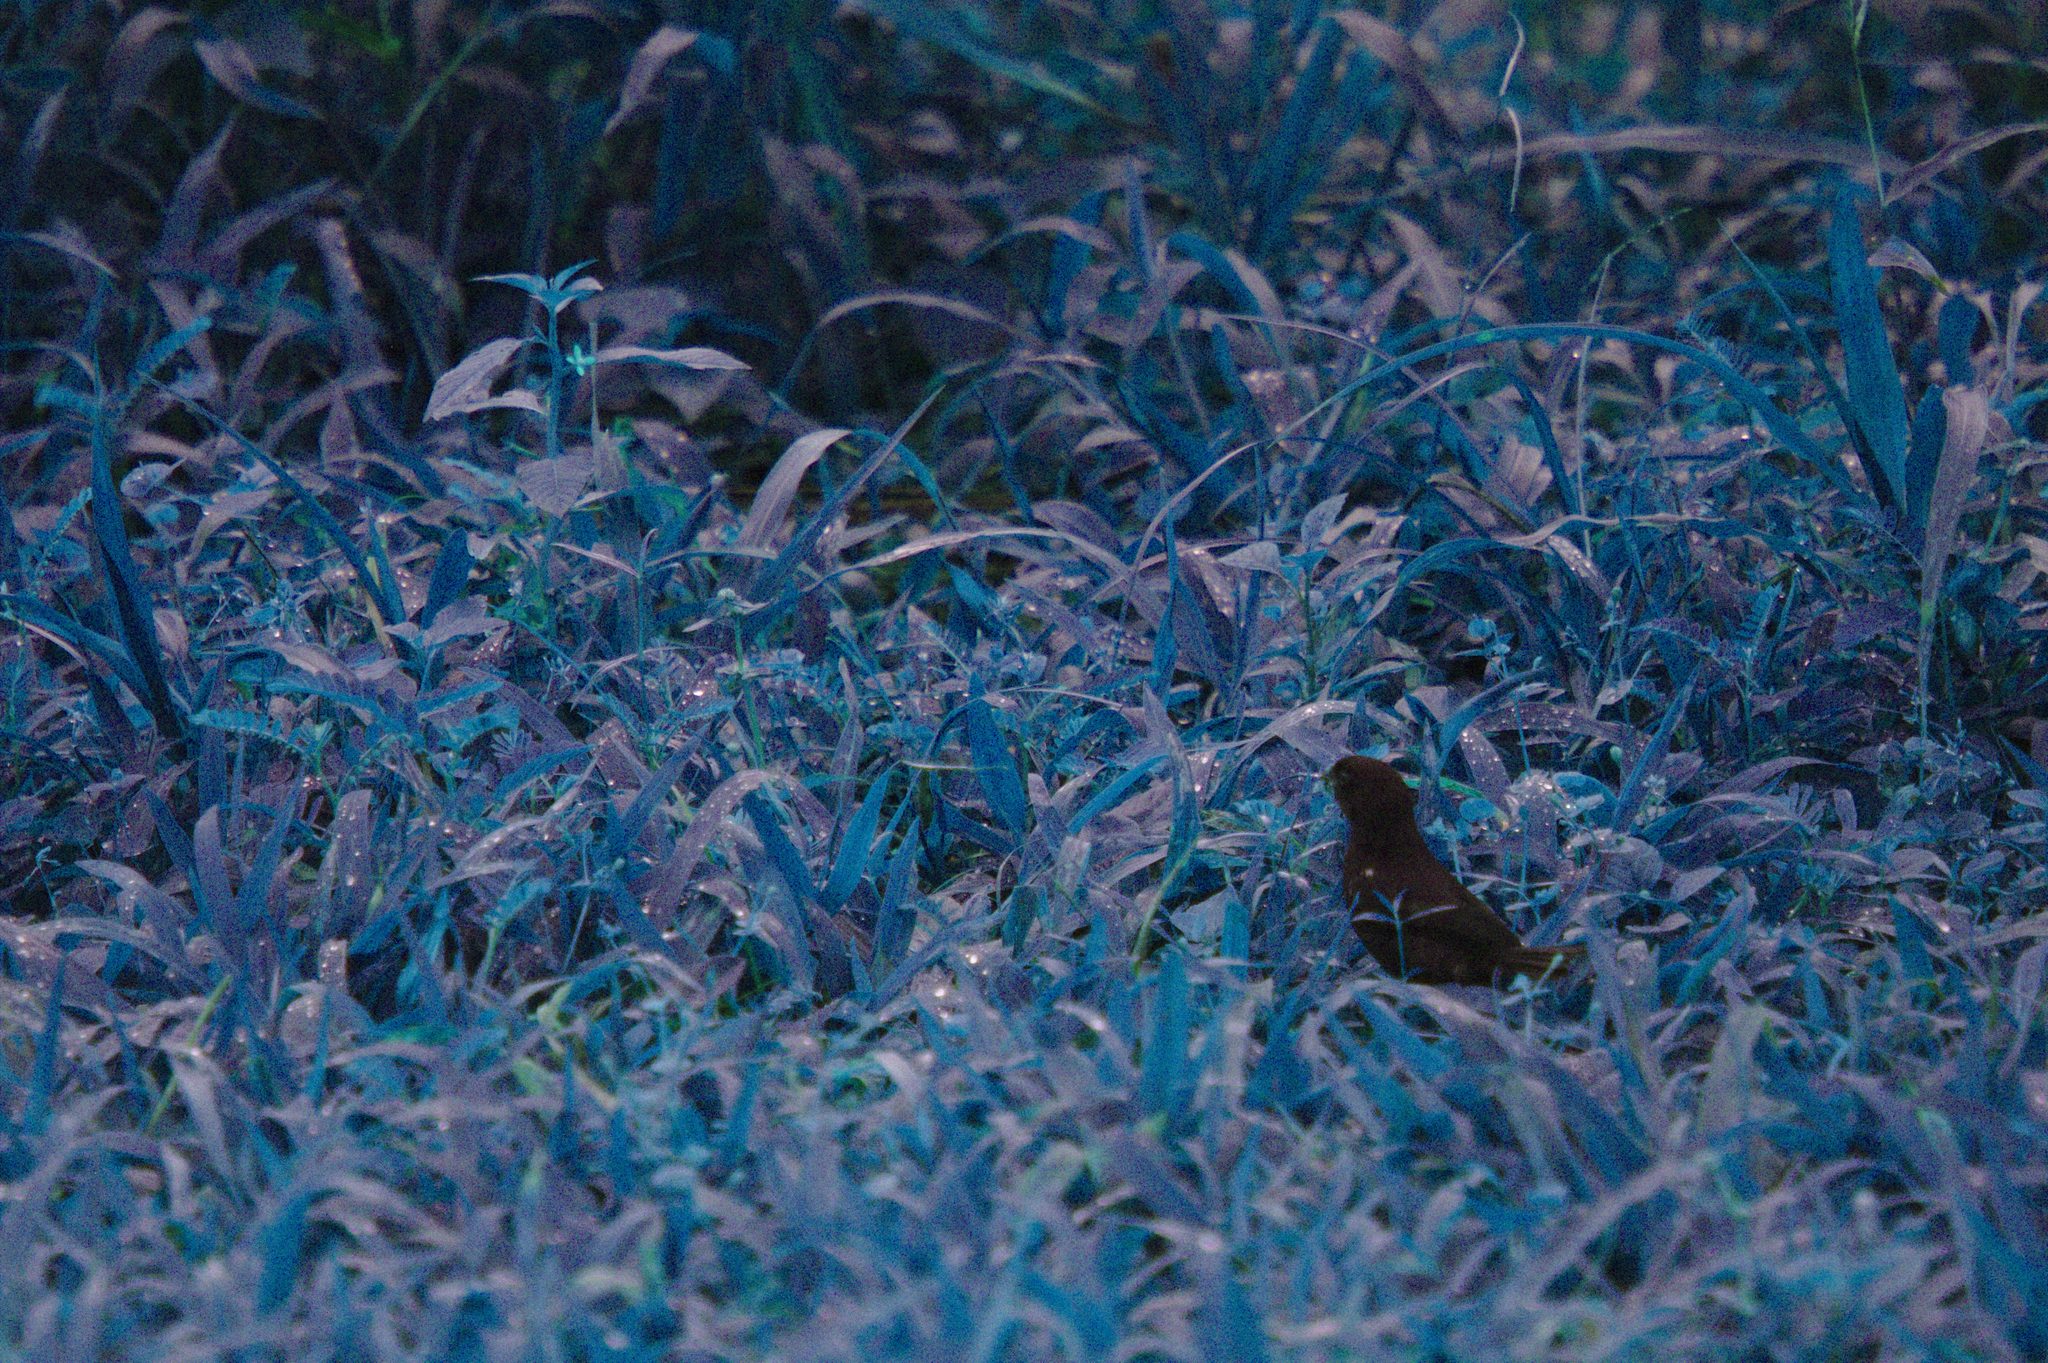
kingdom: Animalia
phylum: Chordata
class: Aves
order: Passeriformes
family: Thraupidae
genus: Sporophila
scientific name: Sporophila corvina
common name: Variable seedeater
